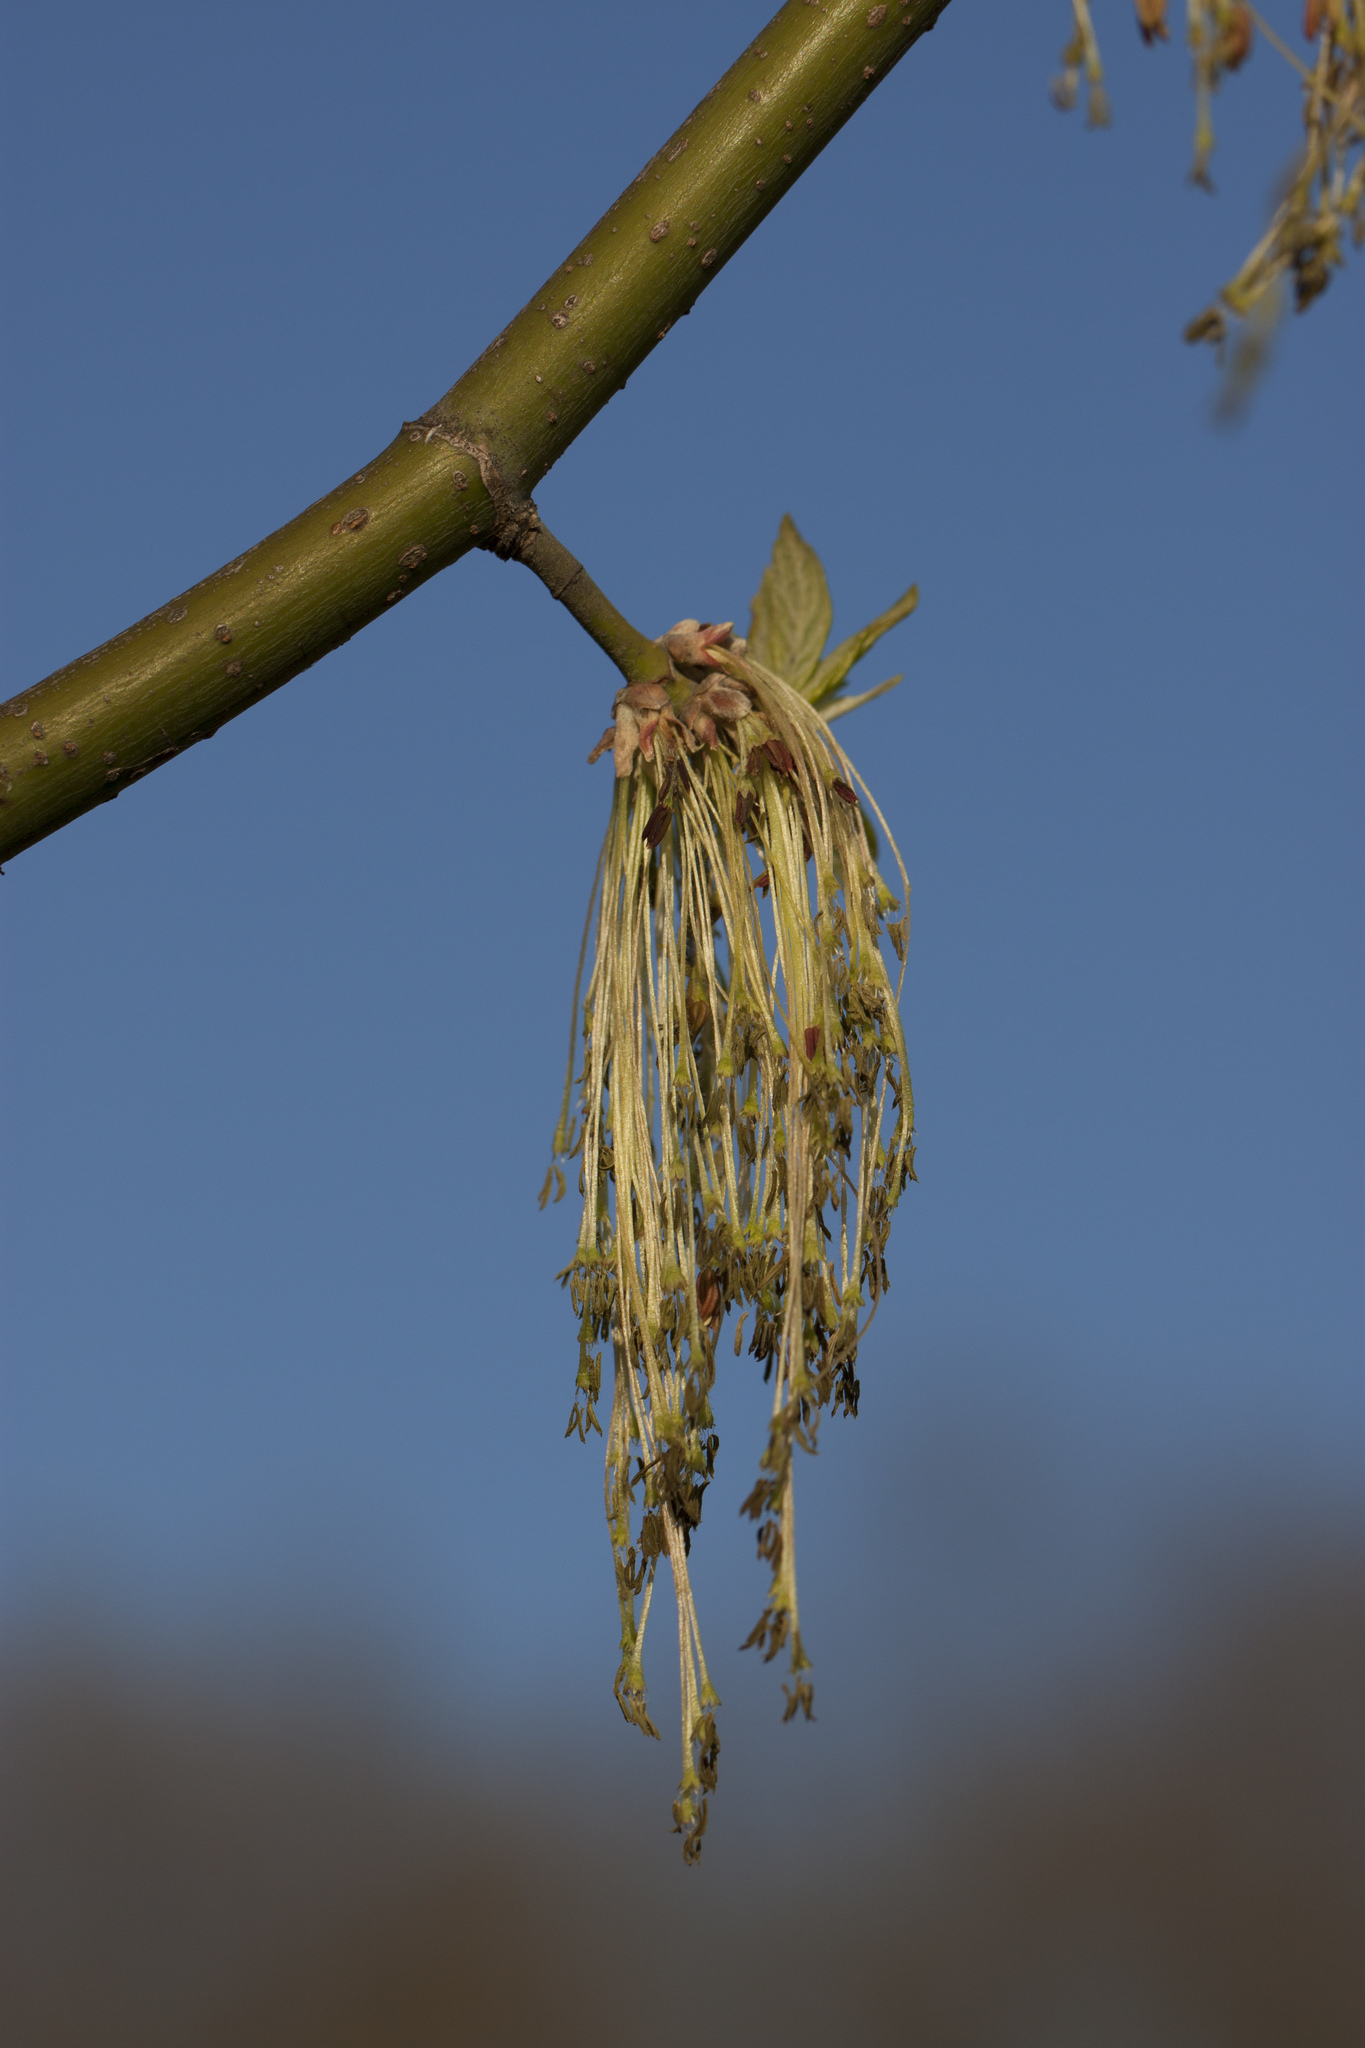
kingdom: Plantae
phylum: Tracheophyta
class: Magnoliopsida
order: Sapindales
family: Sapindaceae
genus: Acer
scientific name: Acer negundo
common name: Ashleaf maple
